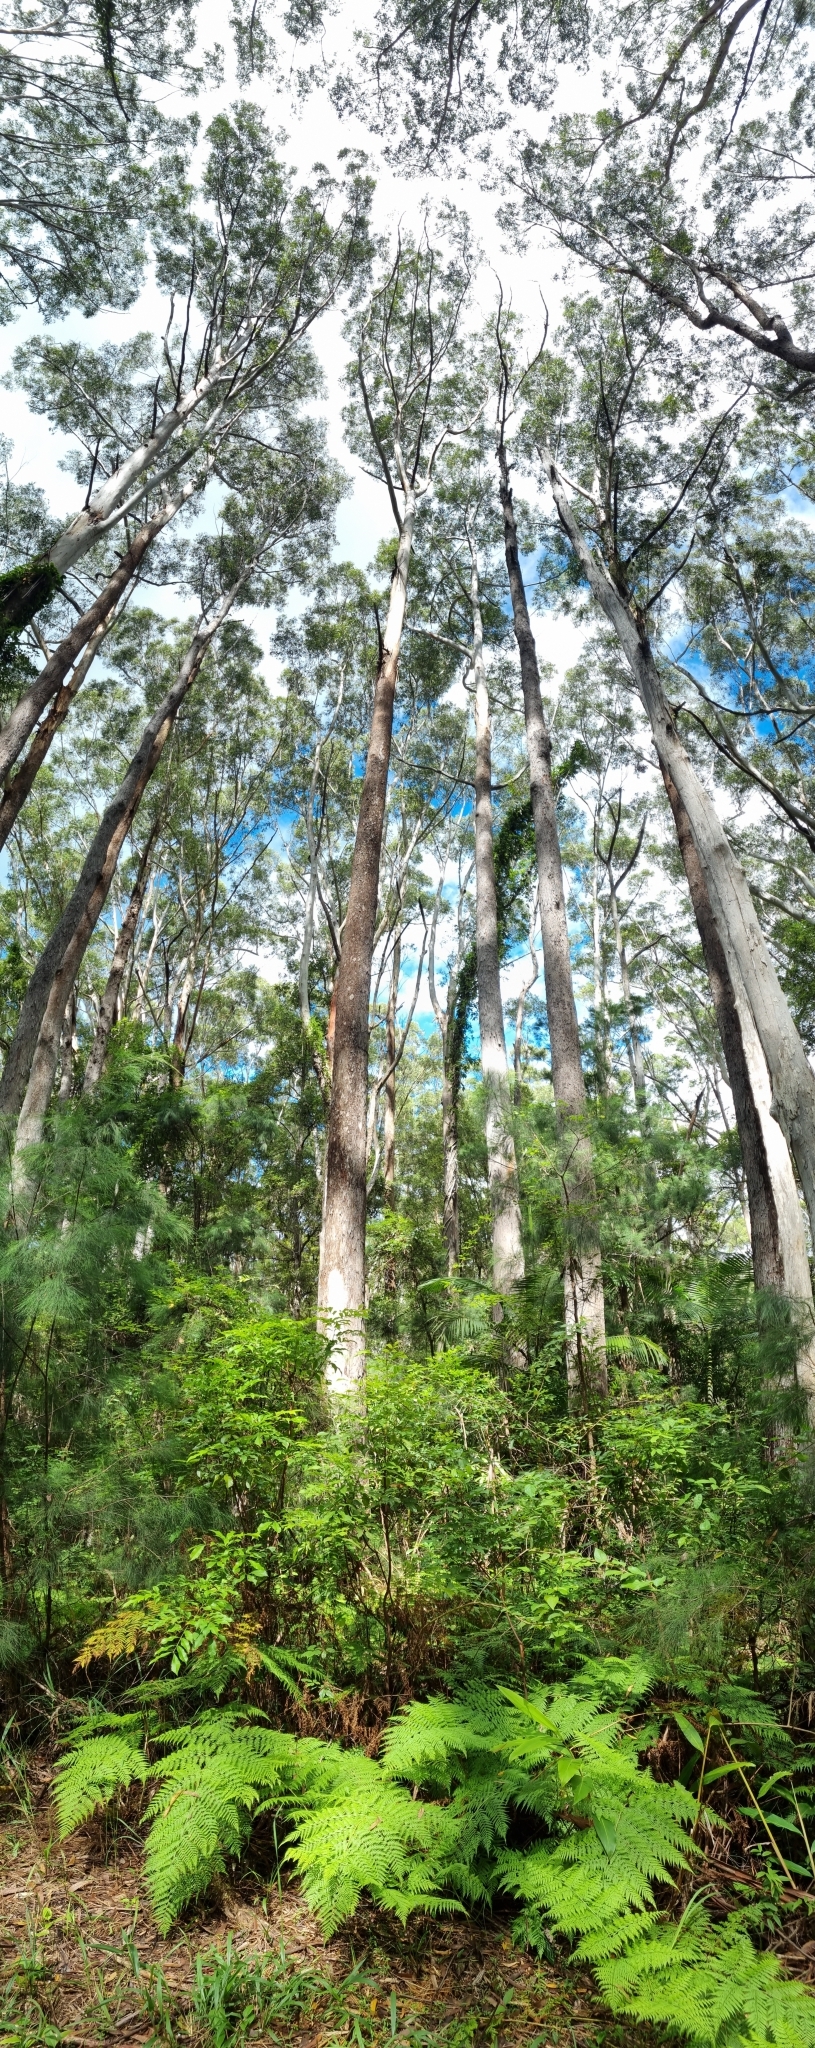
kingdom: Plantae
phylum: Tracheophyta
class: Magnoliopsida
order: Myrtales
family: Myrtaceae
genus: Eucalyptus
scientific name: Eucalyptus pilularis
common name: Blackbutt
